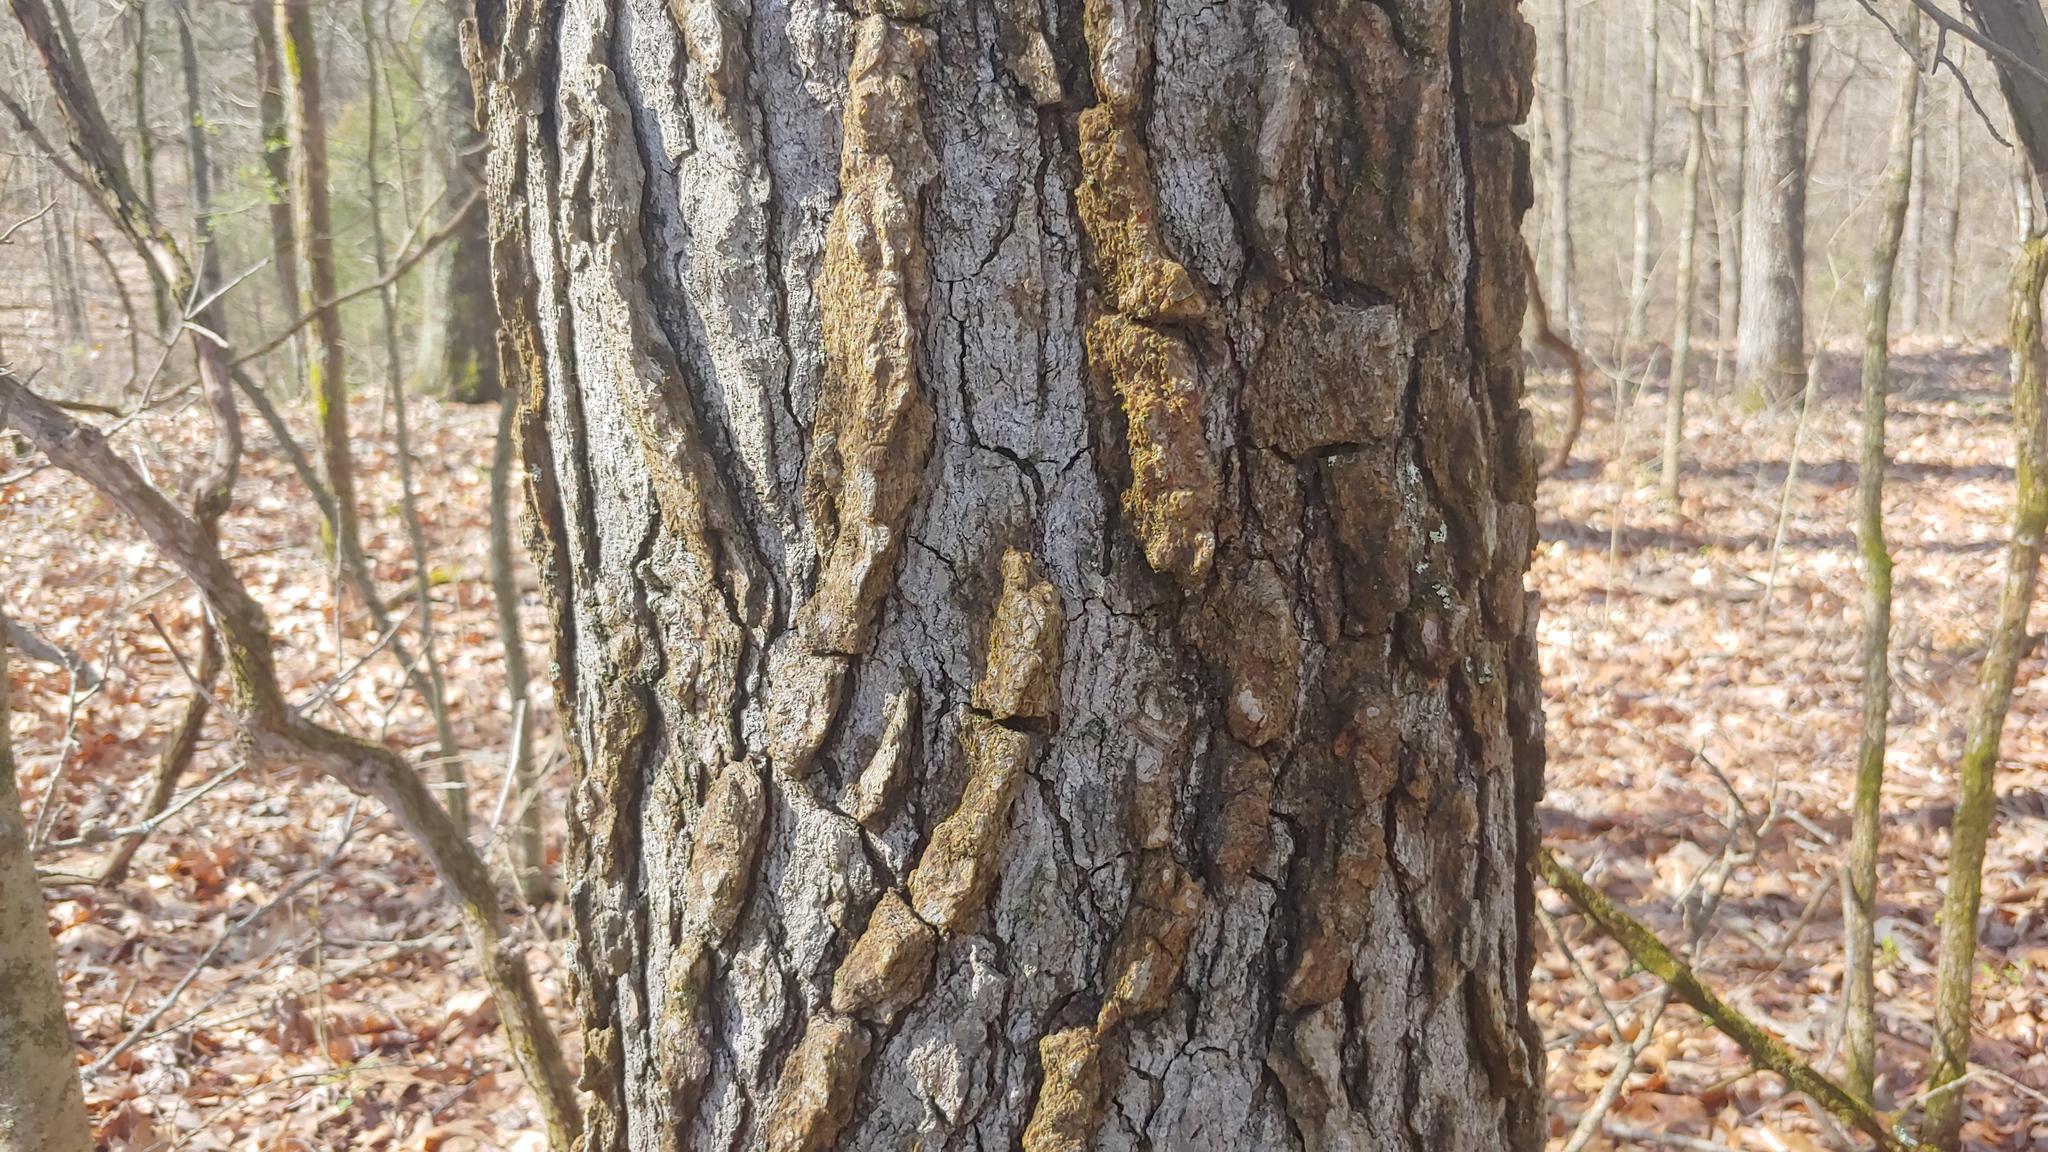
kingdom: Plantae
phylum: Tracheophyta
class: Magnoliopsida
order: Saxifragales
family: Altingiaceae
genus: Liquidambar
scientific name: Liquidambar styraciflua
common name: Sweet gum
